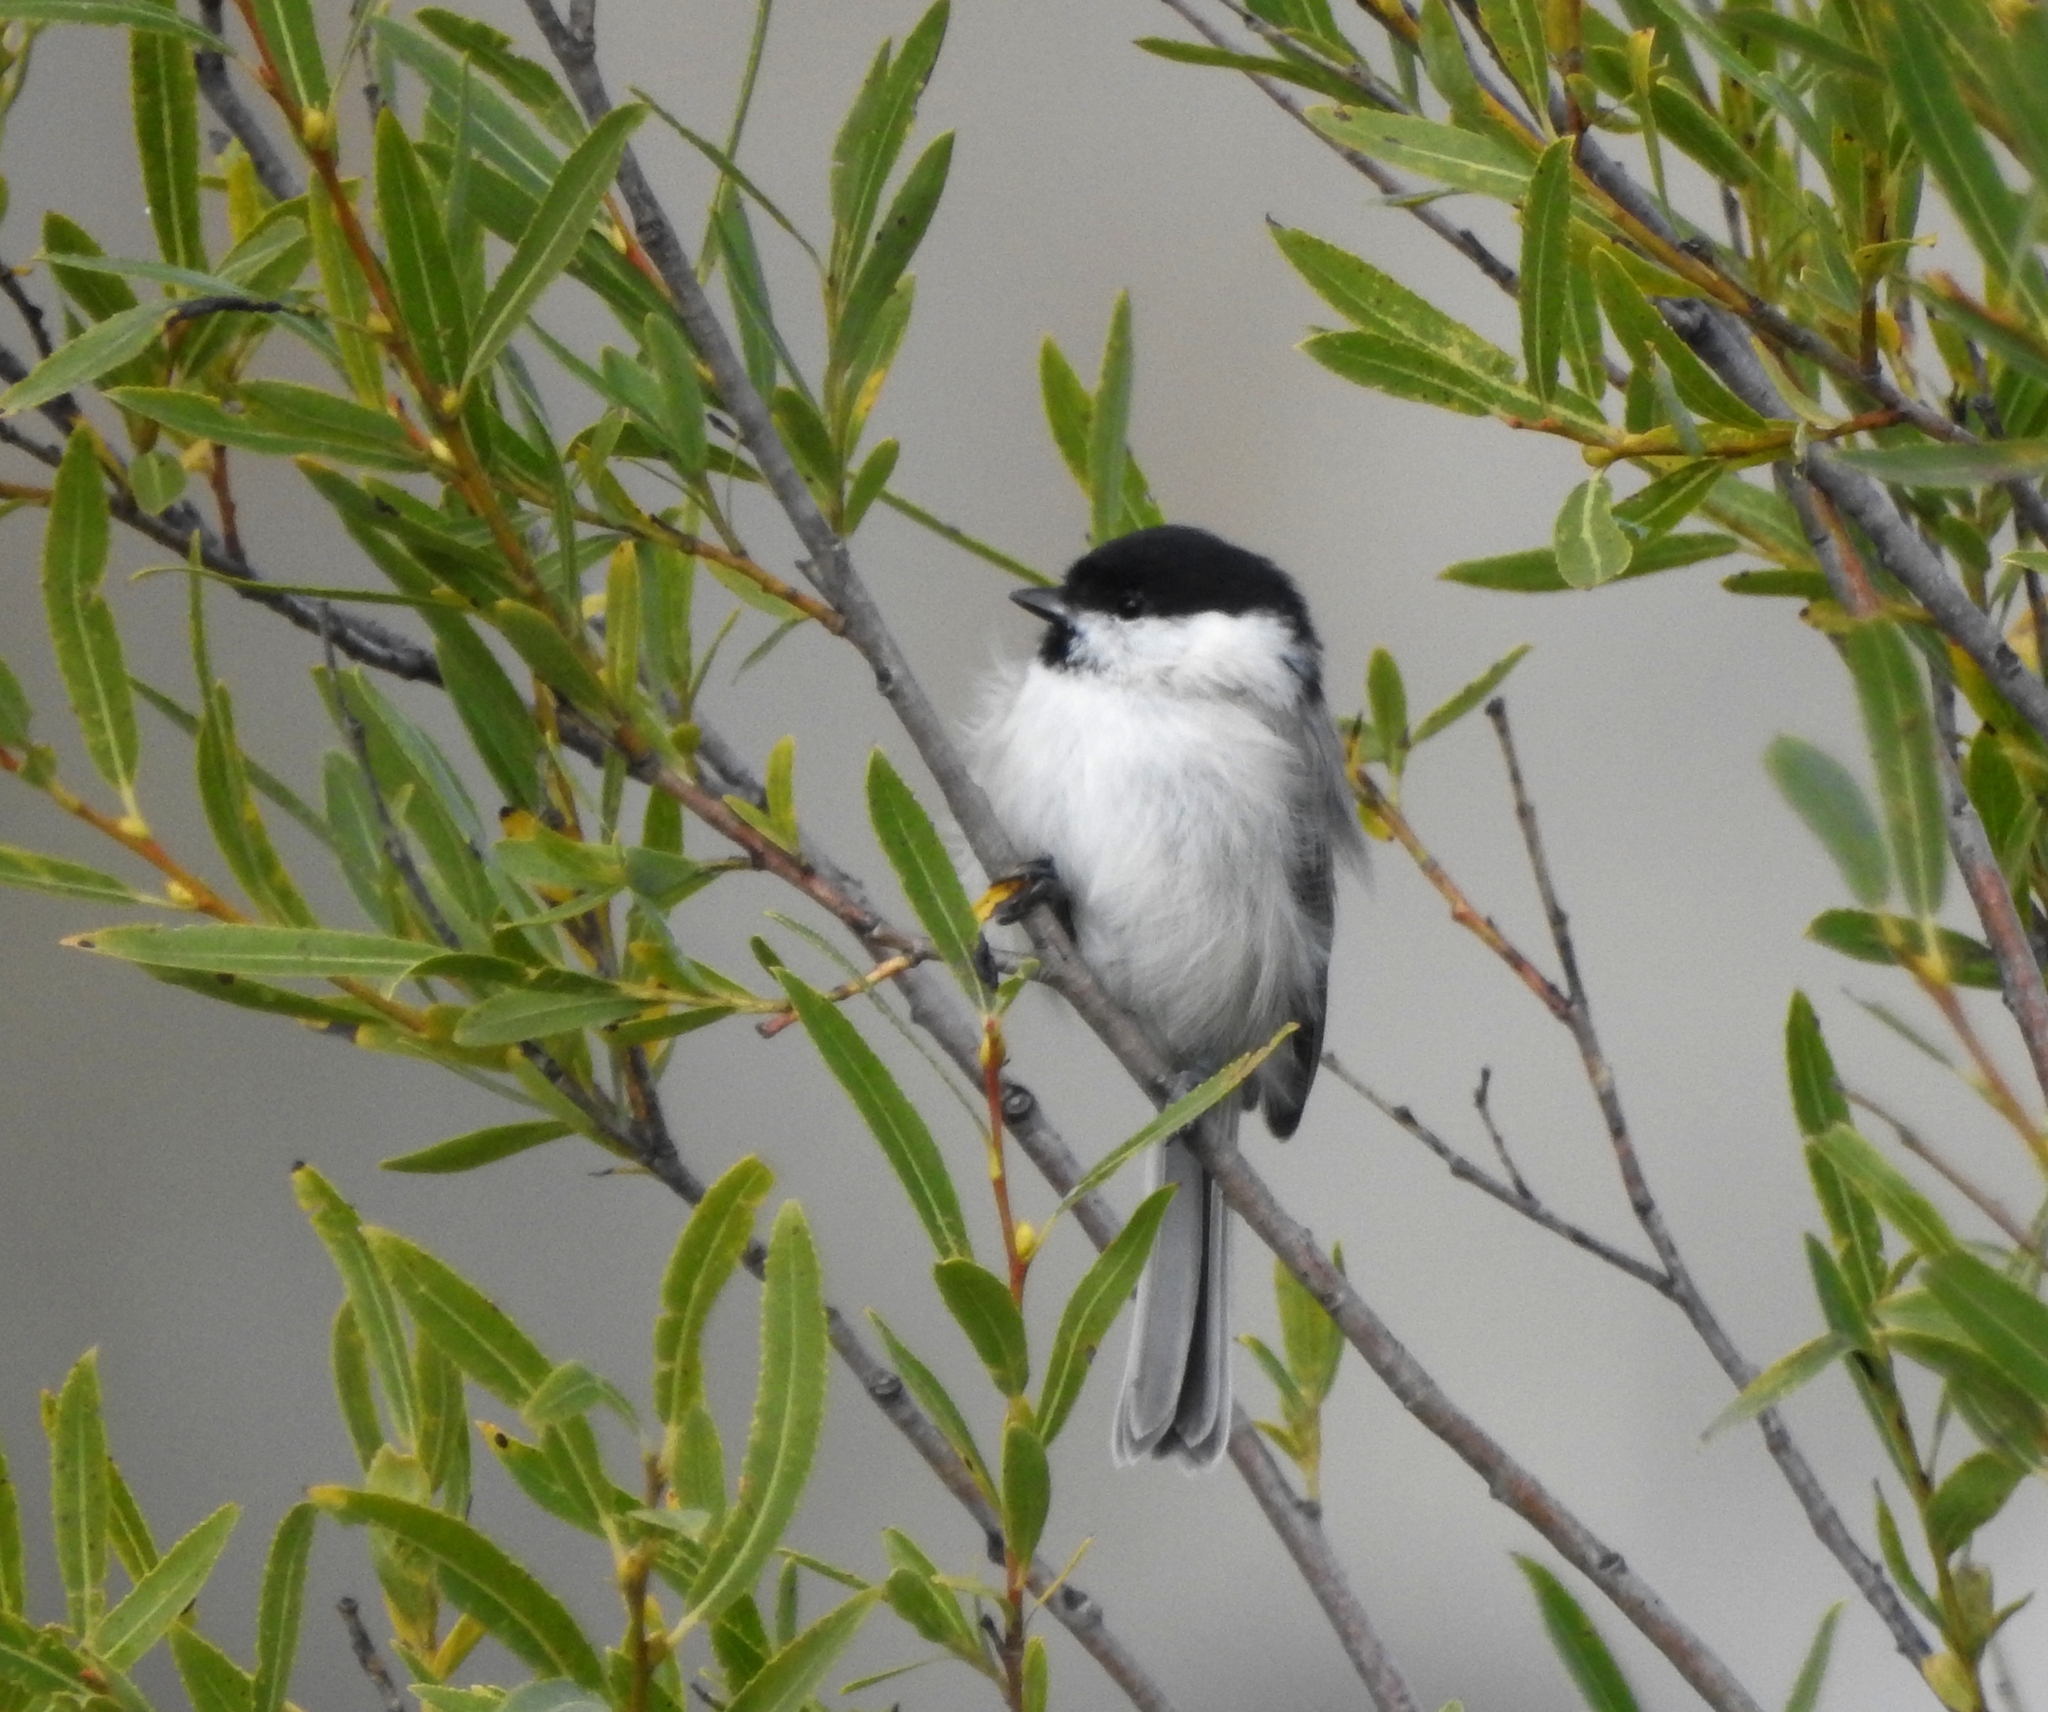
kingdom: Animalia
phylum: Chordata
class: Aves
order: Passeriformes
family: Paridae
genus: Poecile
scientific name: Poecile palustris
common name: Marsh tit
